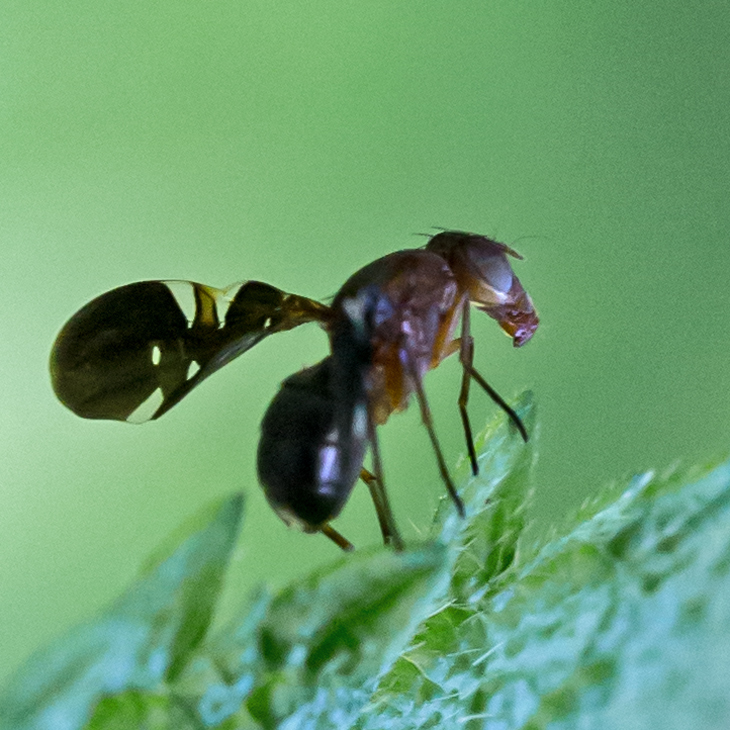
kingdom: Animalia
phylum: Arthropoda
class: Insecta
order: Diptera
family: Ulidiidae
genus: Delphinia
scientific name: Delphinia picta
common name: Common picture-winged fly
